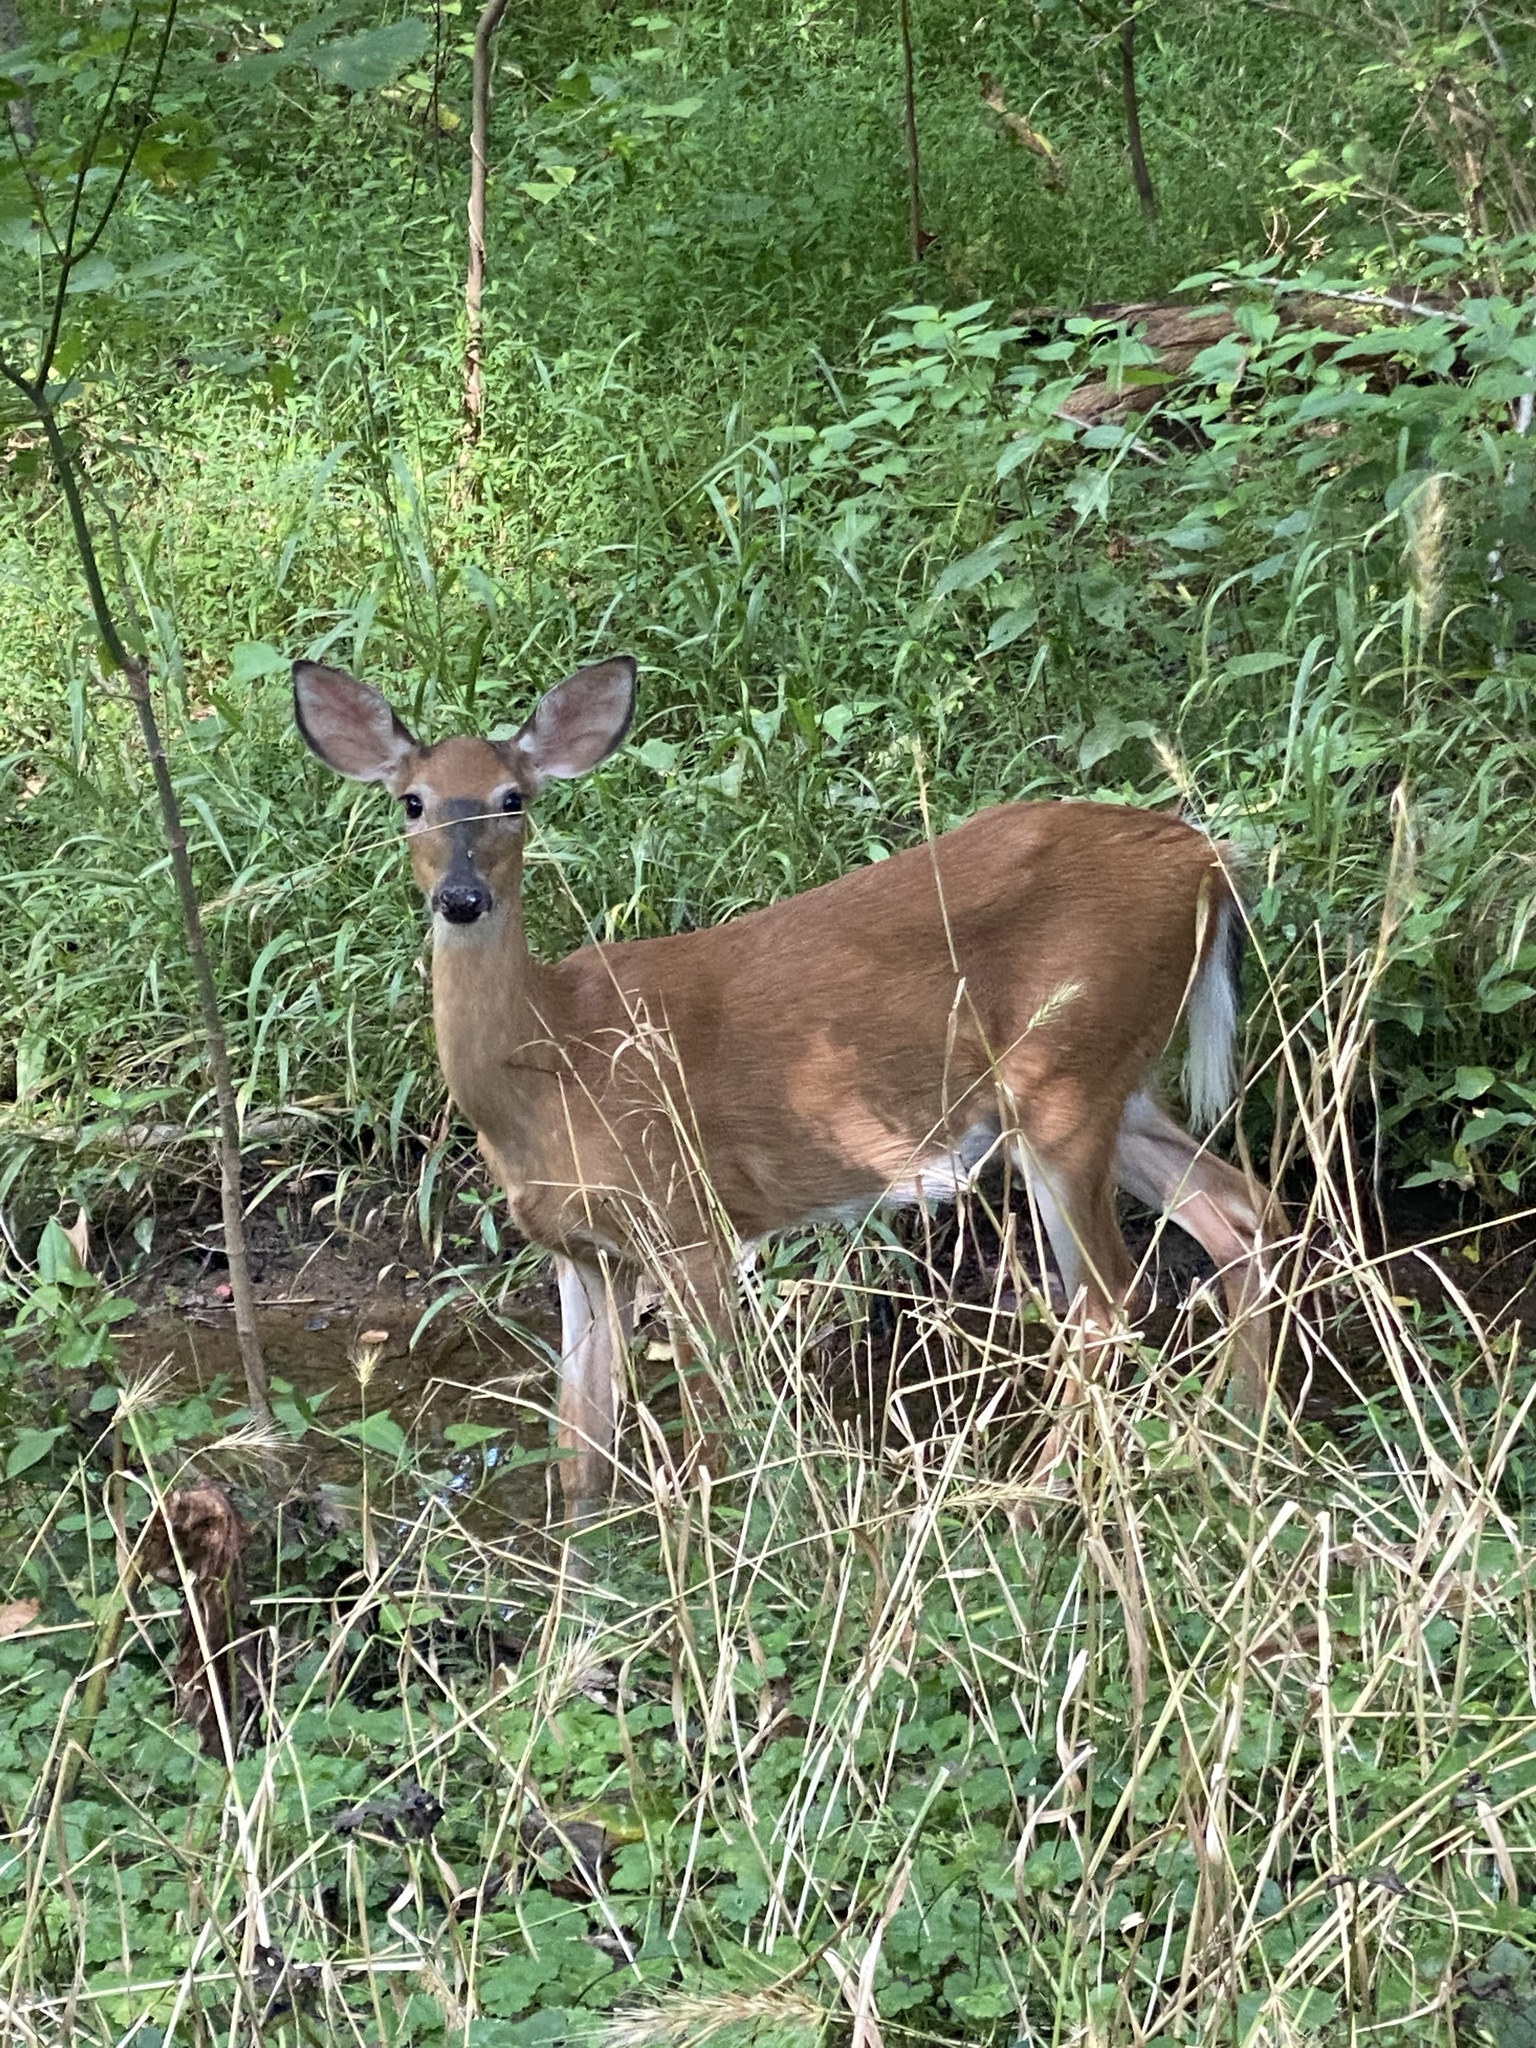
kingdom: Animalia
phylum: Chordata
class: Mammalia
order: Artiodactyla
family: Cervidae
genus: Odocoileus
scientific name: Odocoileus virginianus
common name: White-tailed deer
